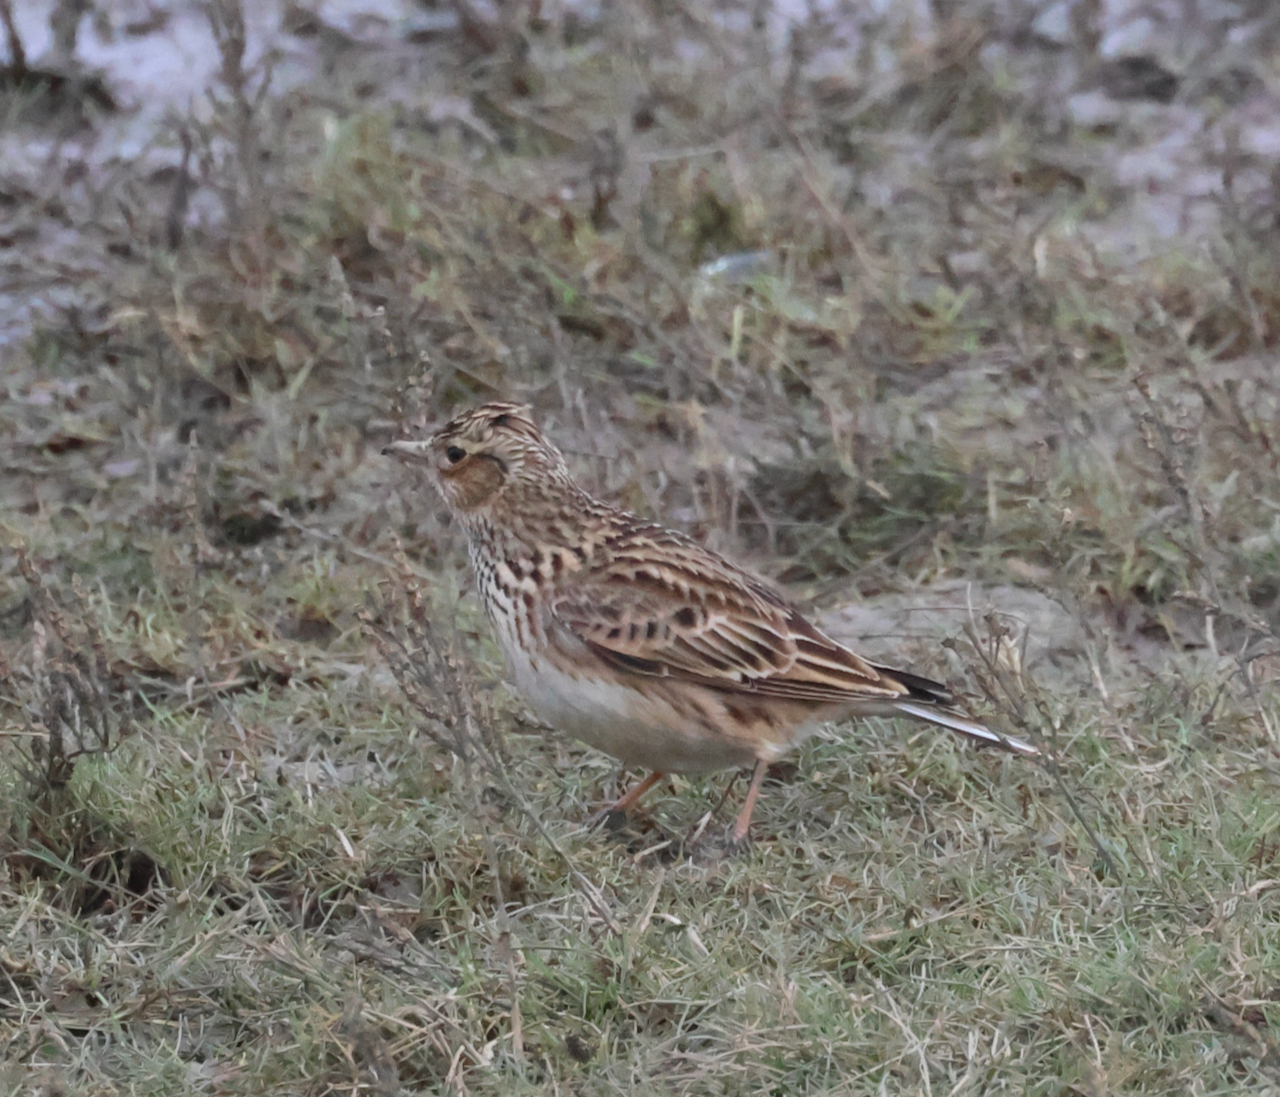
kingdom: Animalia
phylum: Chordata
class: Aves
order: Passeriformes
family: Alaudidae
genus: Alauda
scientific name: Alauda arvensis
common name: Eurasian skylark
